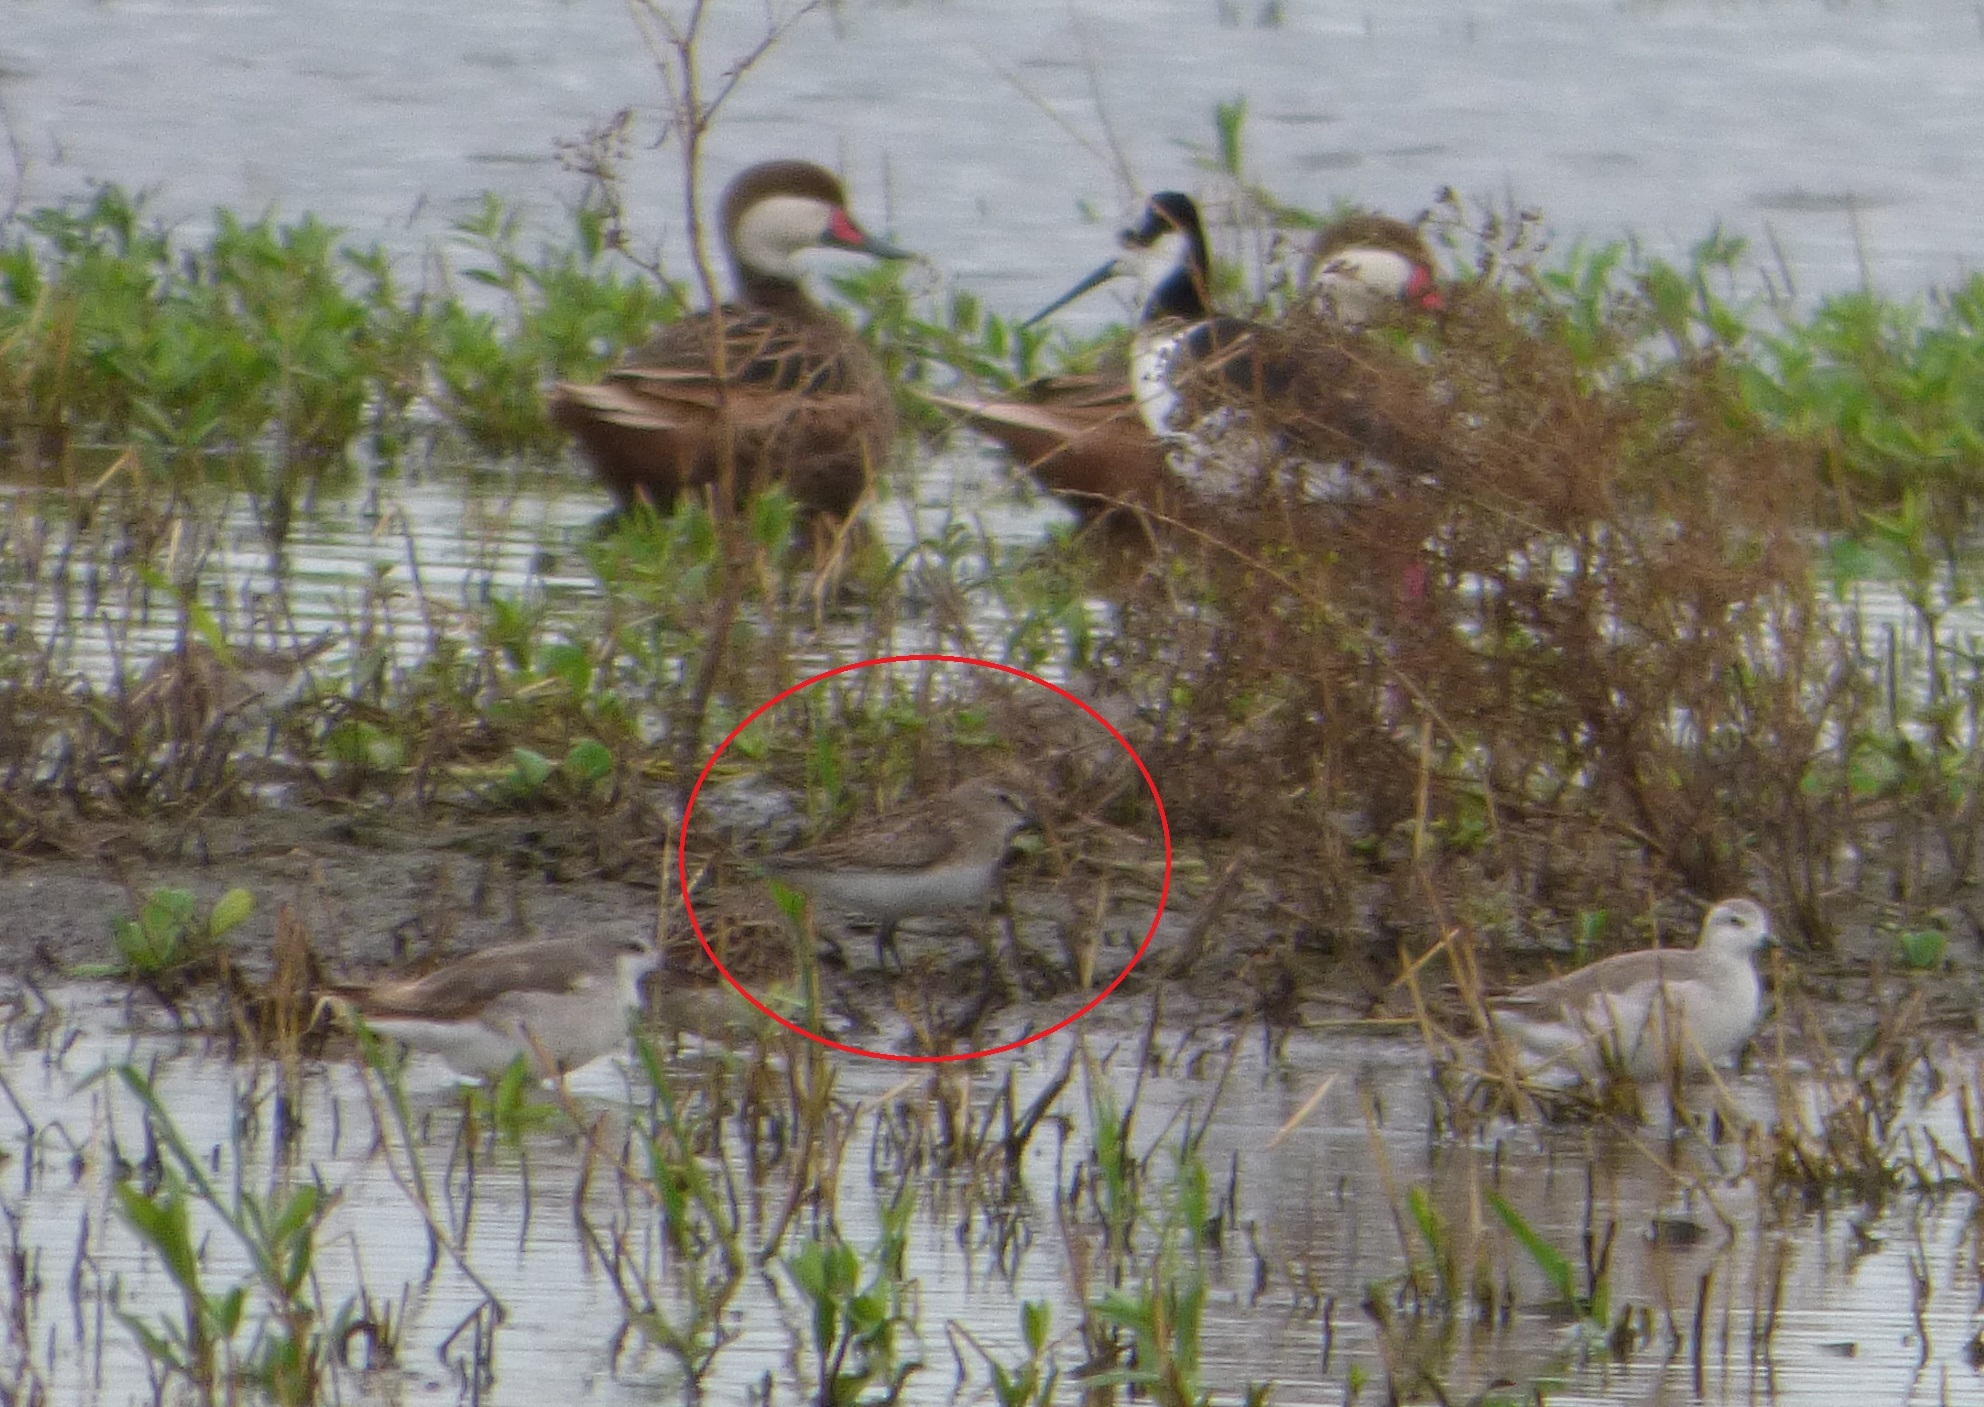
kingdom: Animalia
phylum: Chordata
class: Aves
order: Charadriiformes
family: Scolopacidae
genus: Calidris
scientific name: Calidris bairdii
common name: Baird's sandpiper
